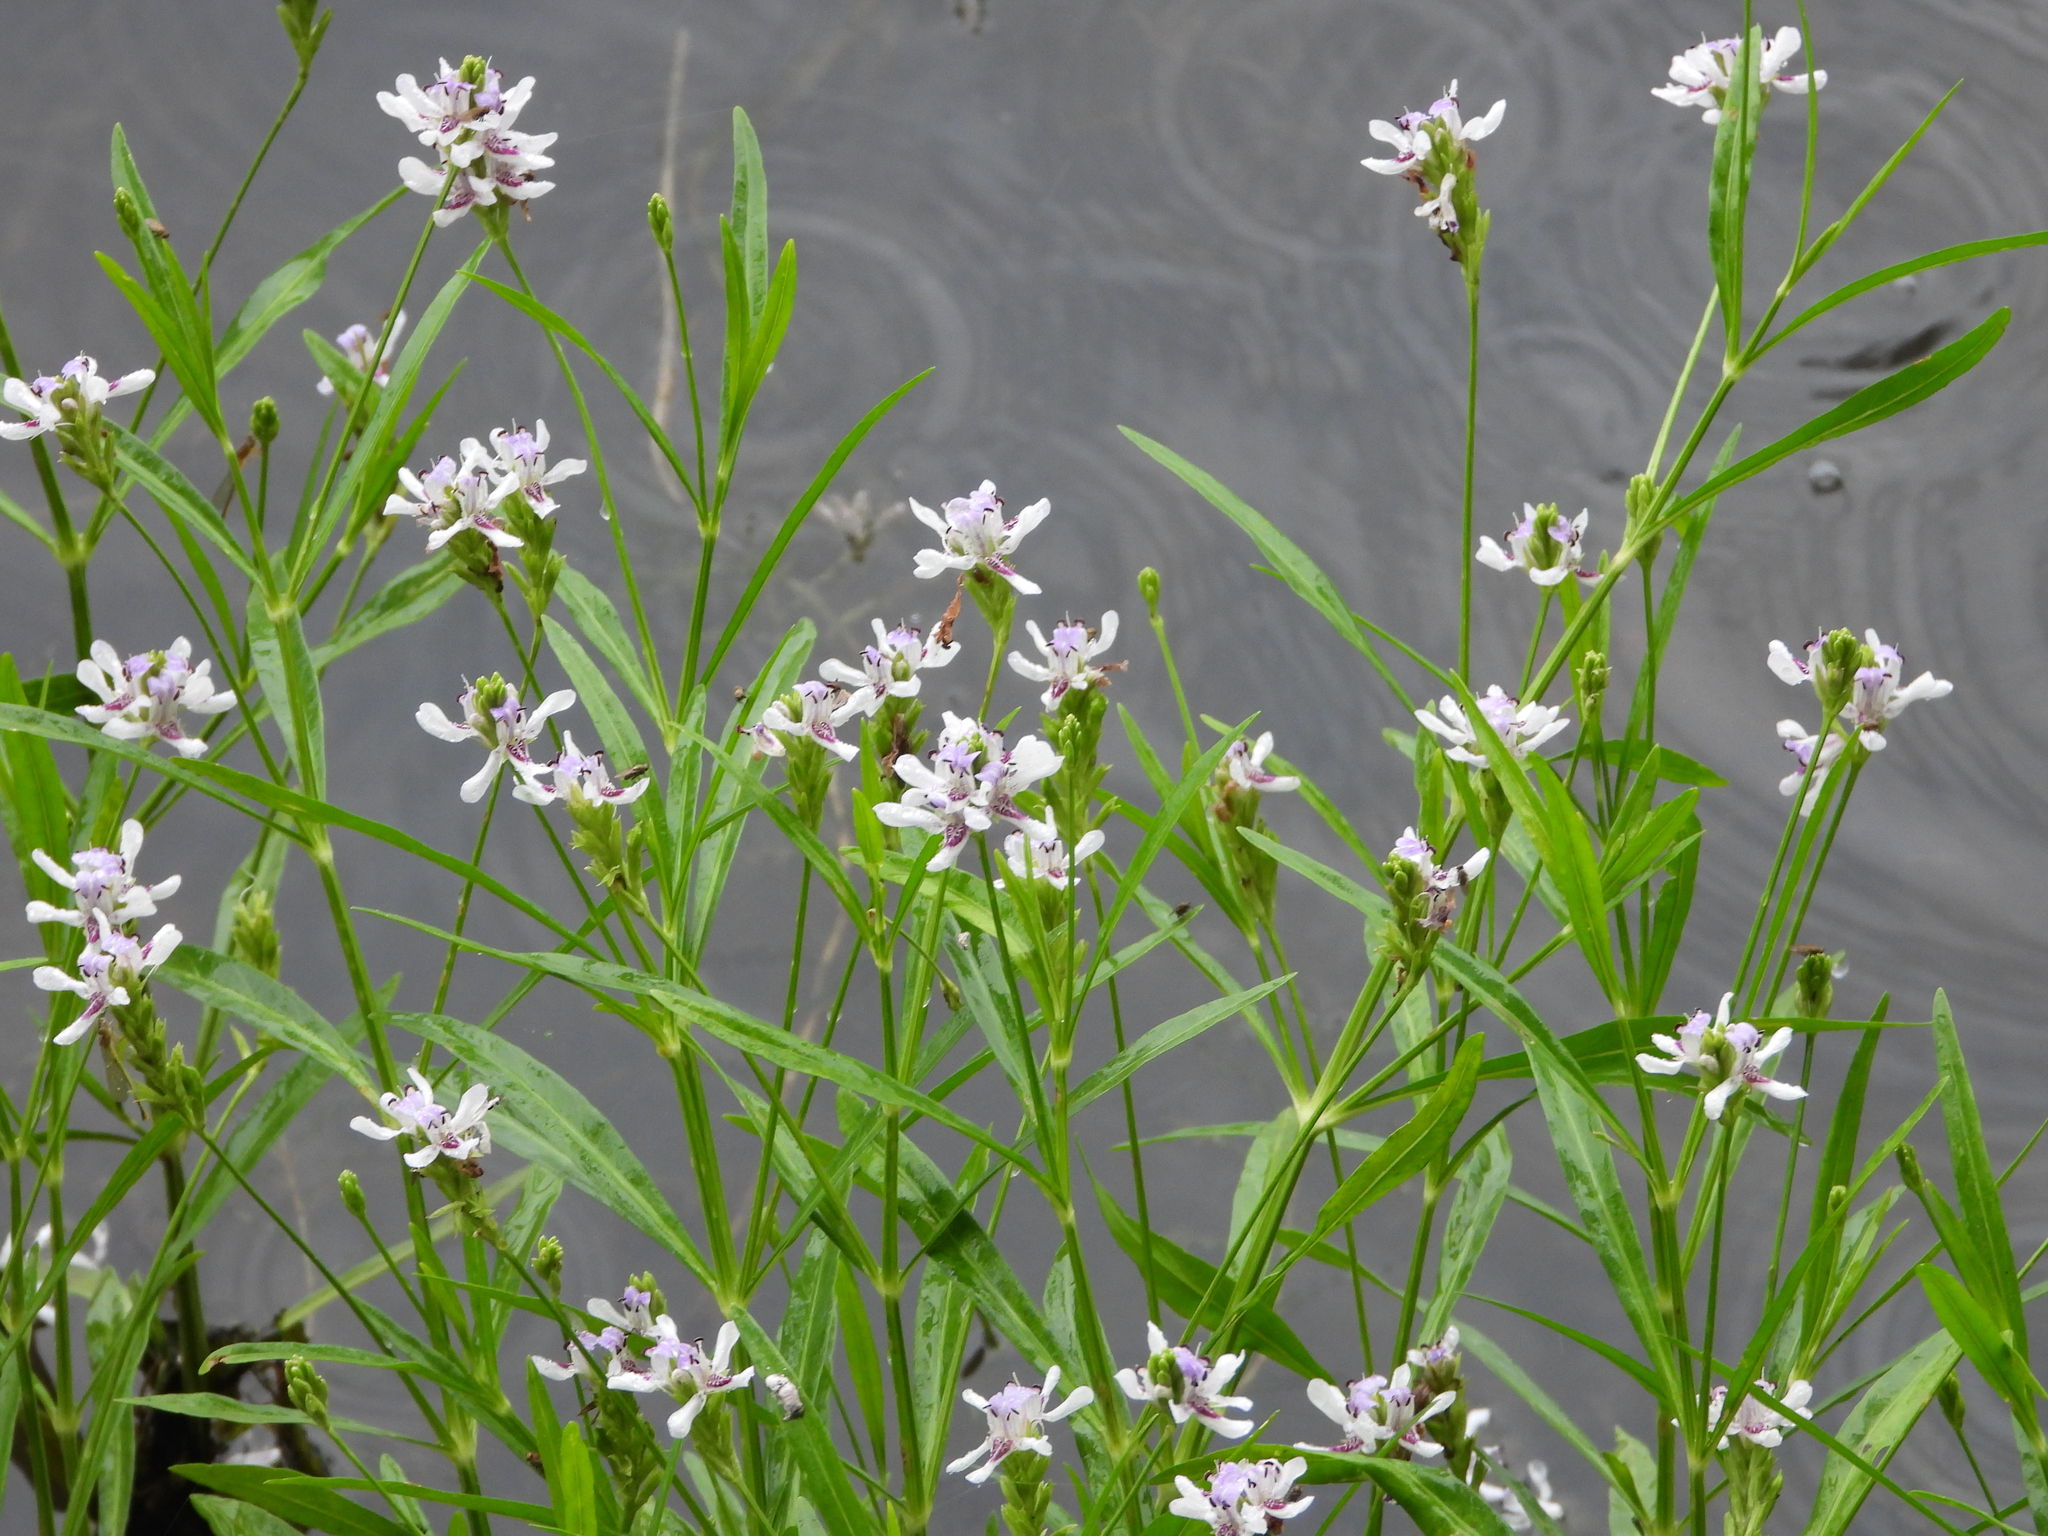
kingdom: Plantae
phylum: Tracheophyta
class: Magnoliopsida
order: Lamiales
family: Acanthaceae
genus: Dianthera
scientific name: Dianthera americana
